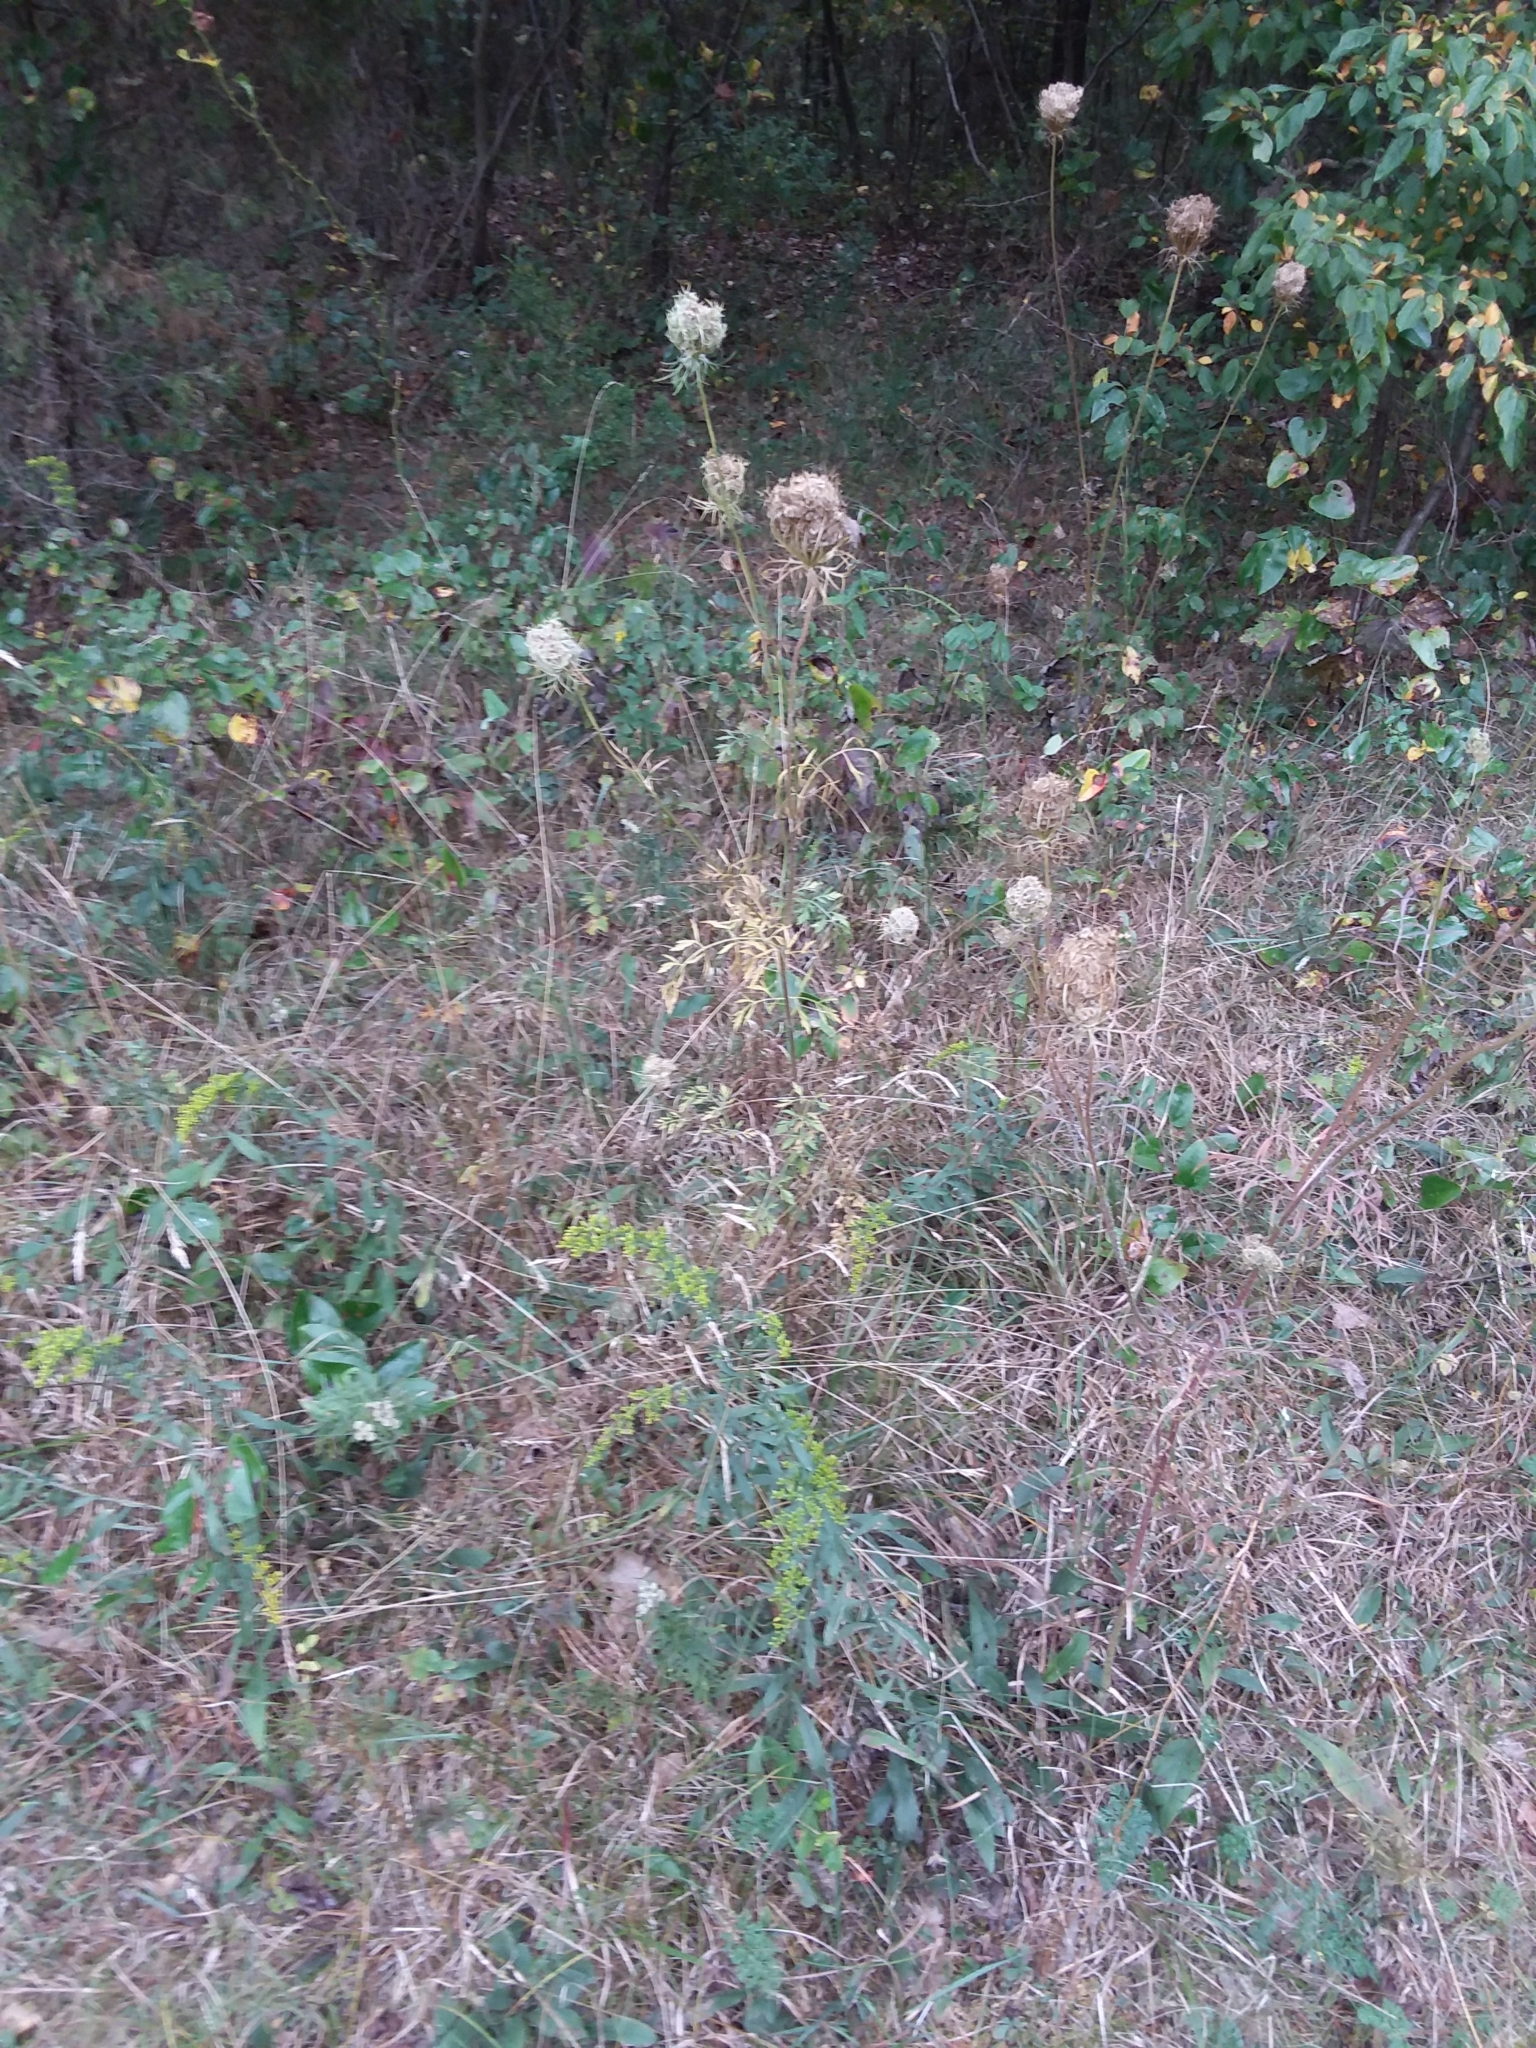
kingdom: Plantae
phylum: Tracheophyta
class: Magnoliopsida
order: Apiales
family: Apiaceae
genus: Daucus
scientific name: Daucus carota
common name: Wild carrot
